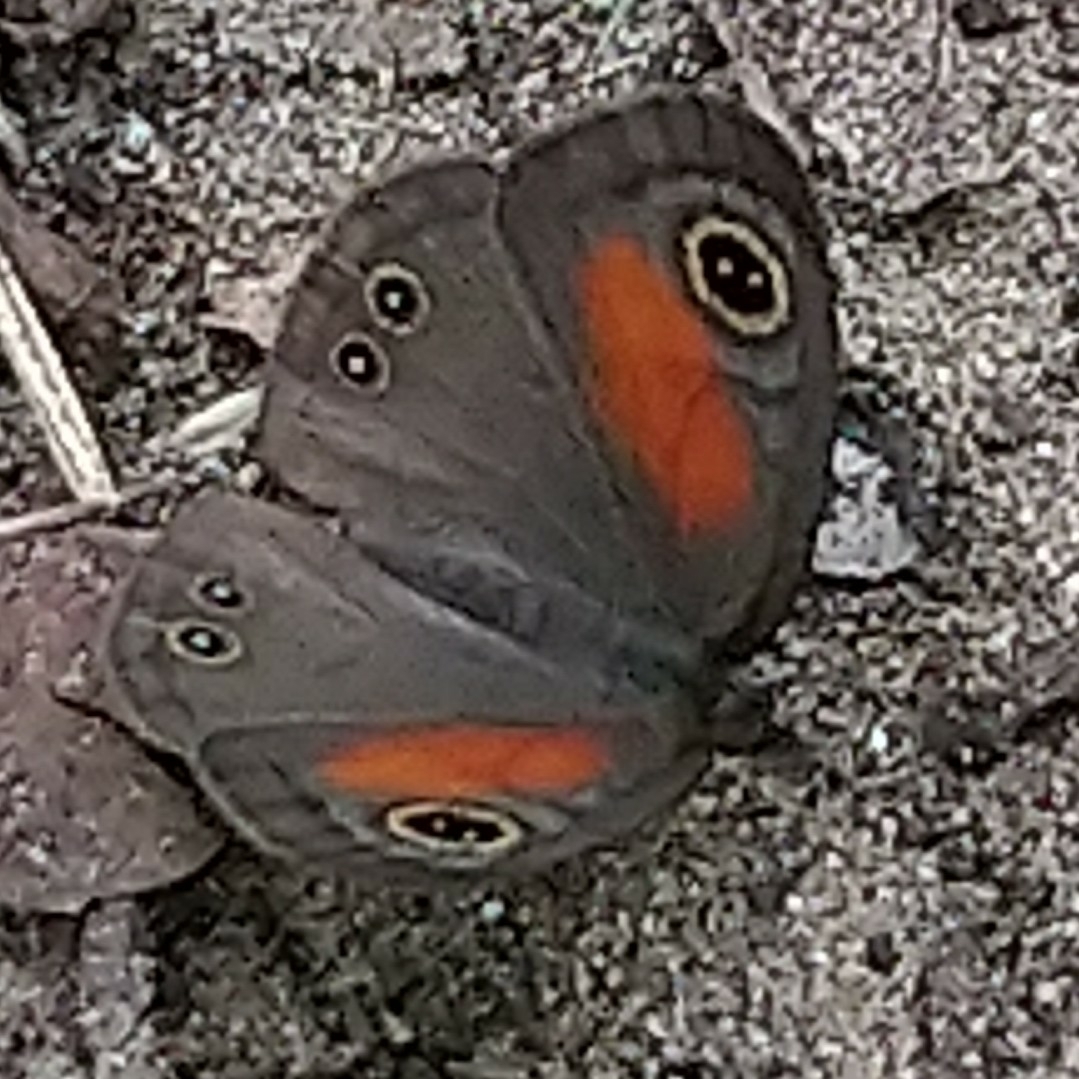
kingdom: Animalia
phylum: Arthropoda
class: Insecta
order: Lepidoptera
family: Nymphalidae
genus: Cassionympha
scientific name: Cassionympha cassius
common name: Rainforest brown
